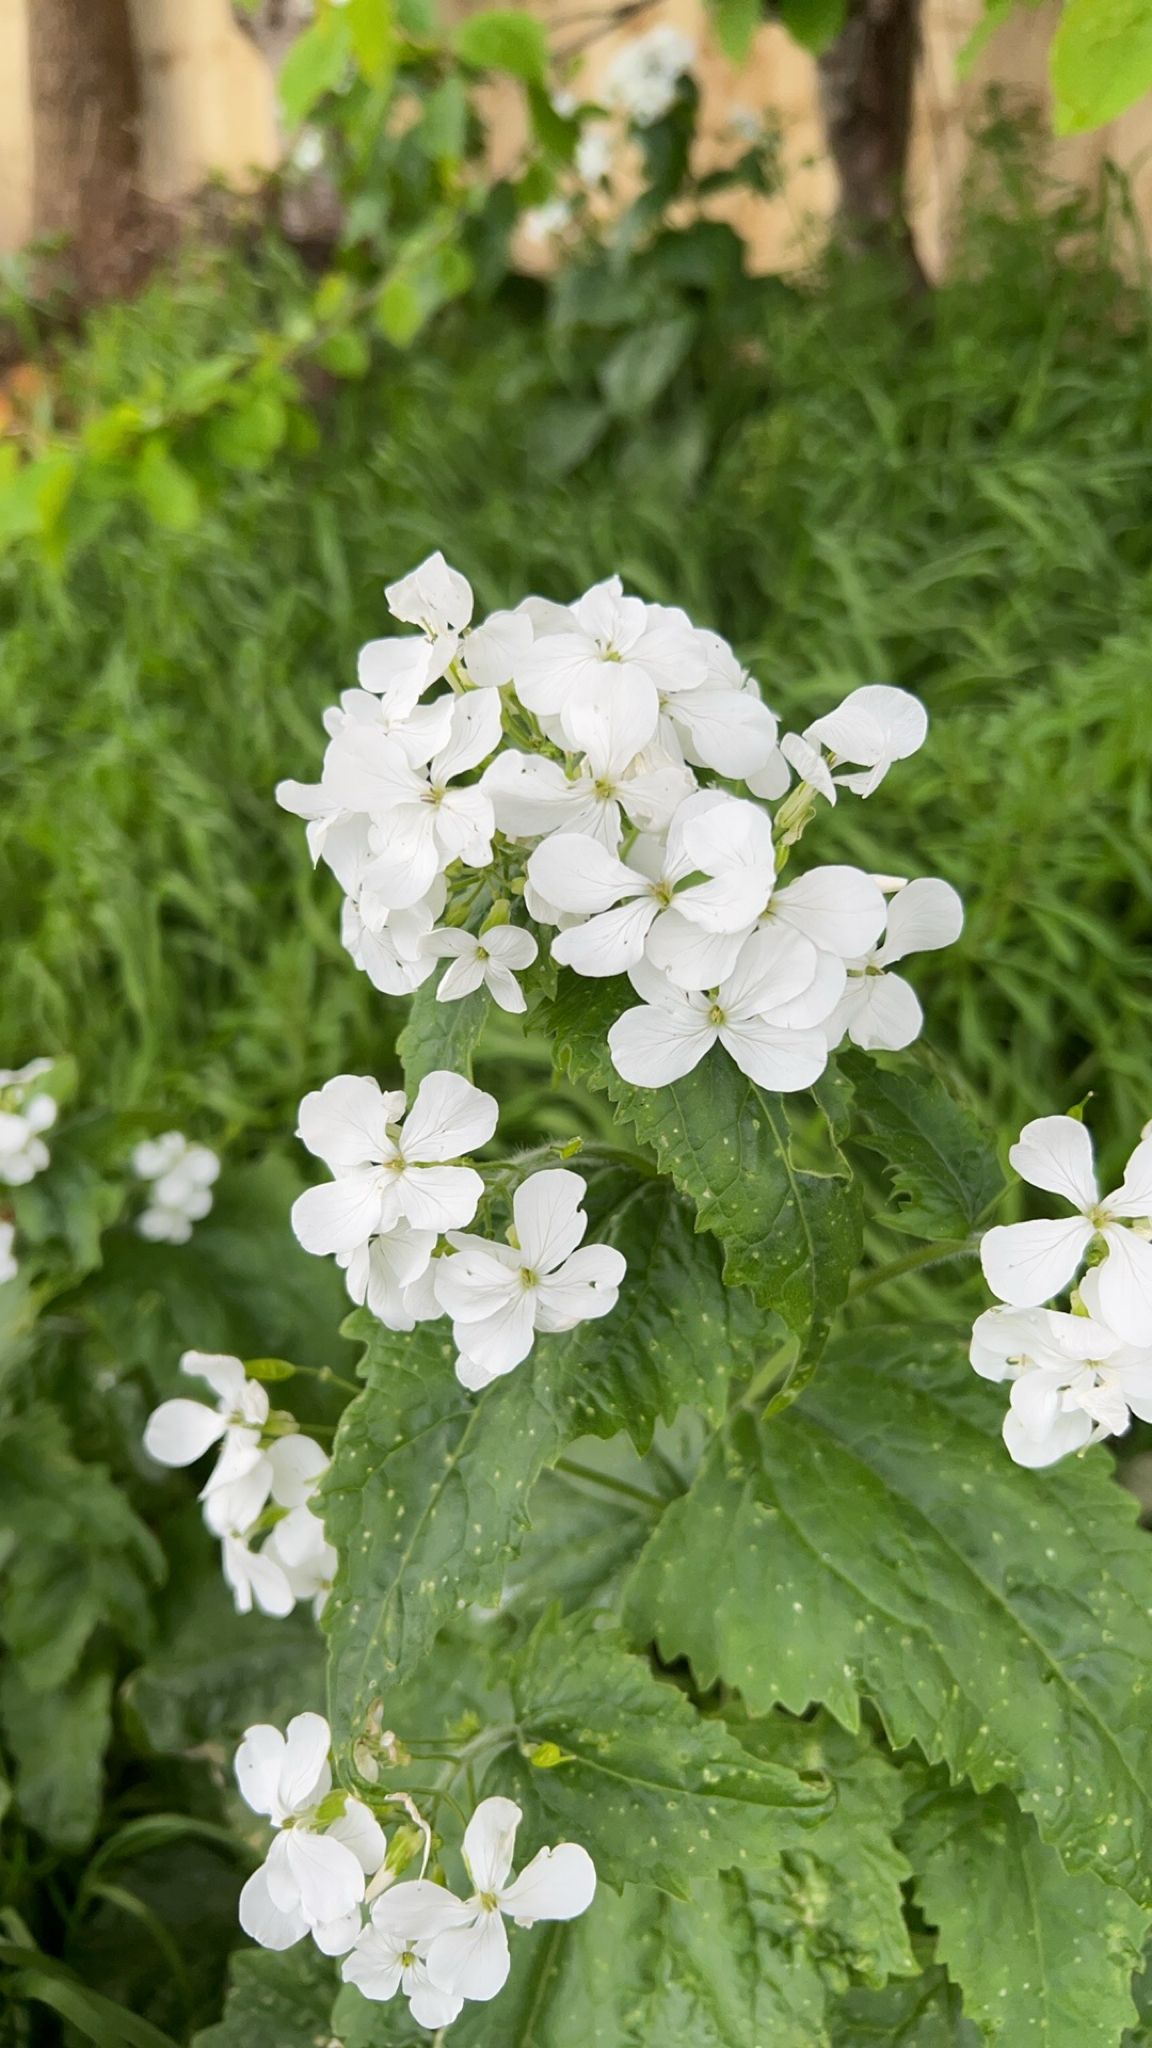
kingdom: Plantae
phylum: Tracheophyta
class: Magnoliopsida
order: Brassicales
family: Brassicaceae
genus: Lunaria
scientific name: Lunaria annua
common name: Honesty
